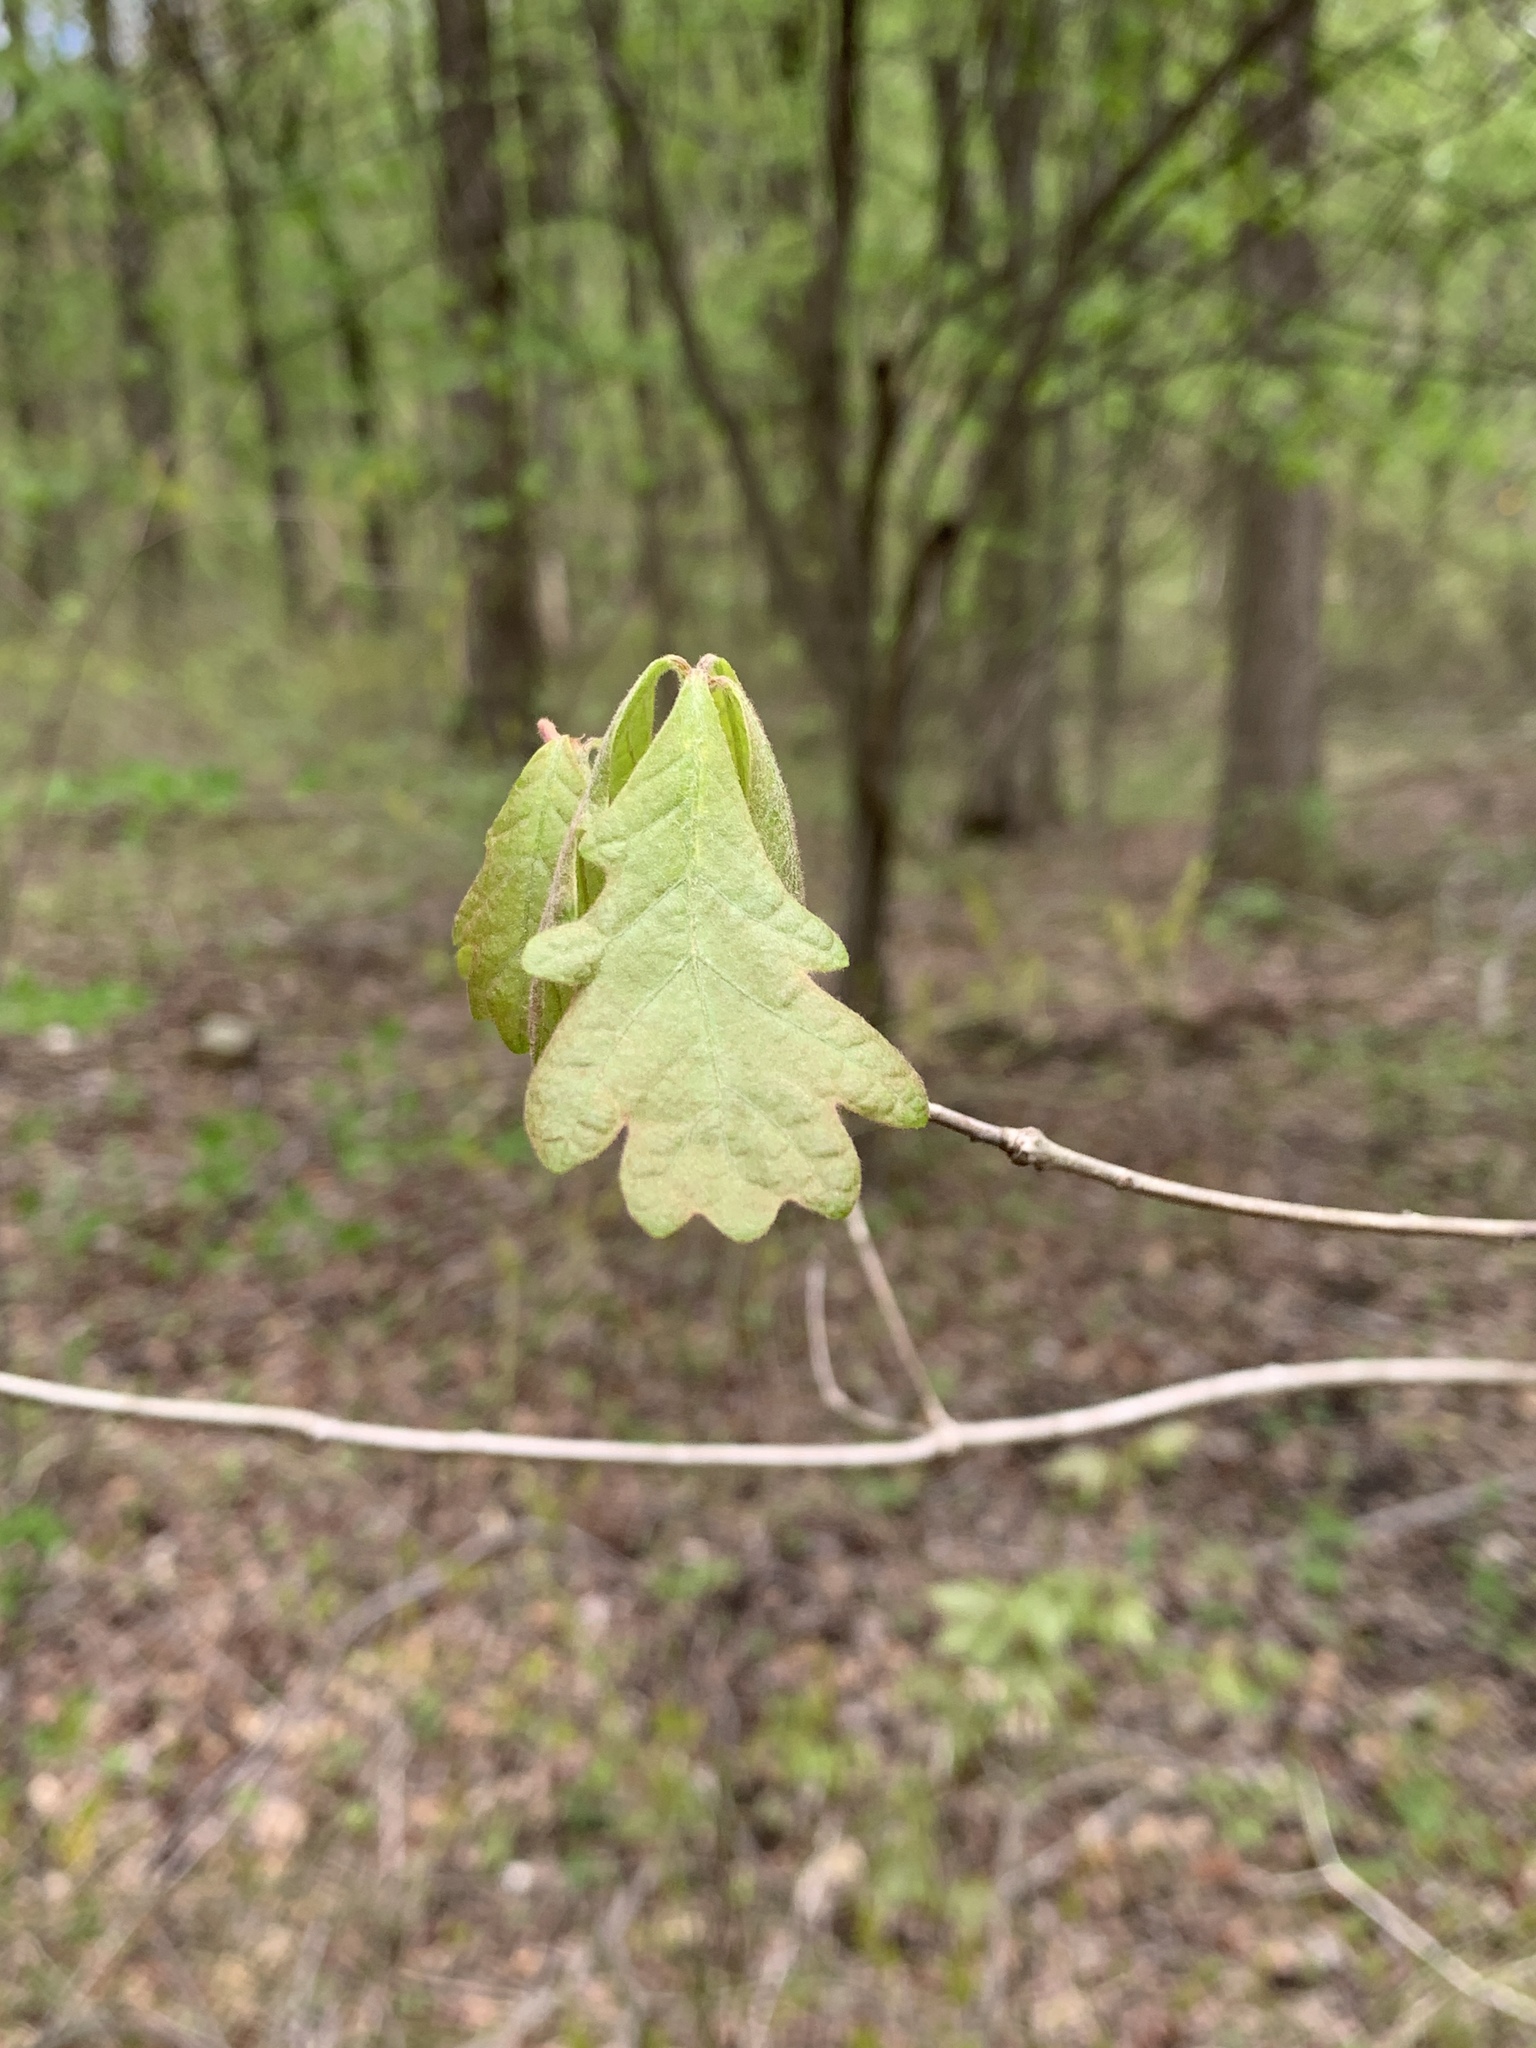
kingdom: Plantae
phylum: Tracheophyta
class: Magnoliopsida
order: Fagales
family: Fagaceae
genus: Quercus
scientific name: Quercus alba
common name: White oak
